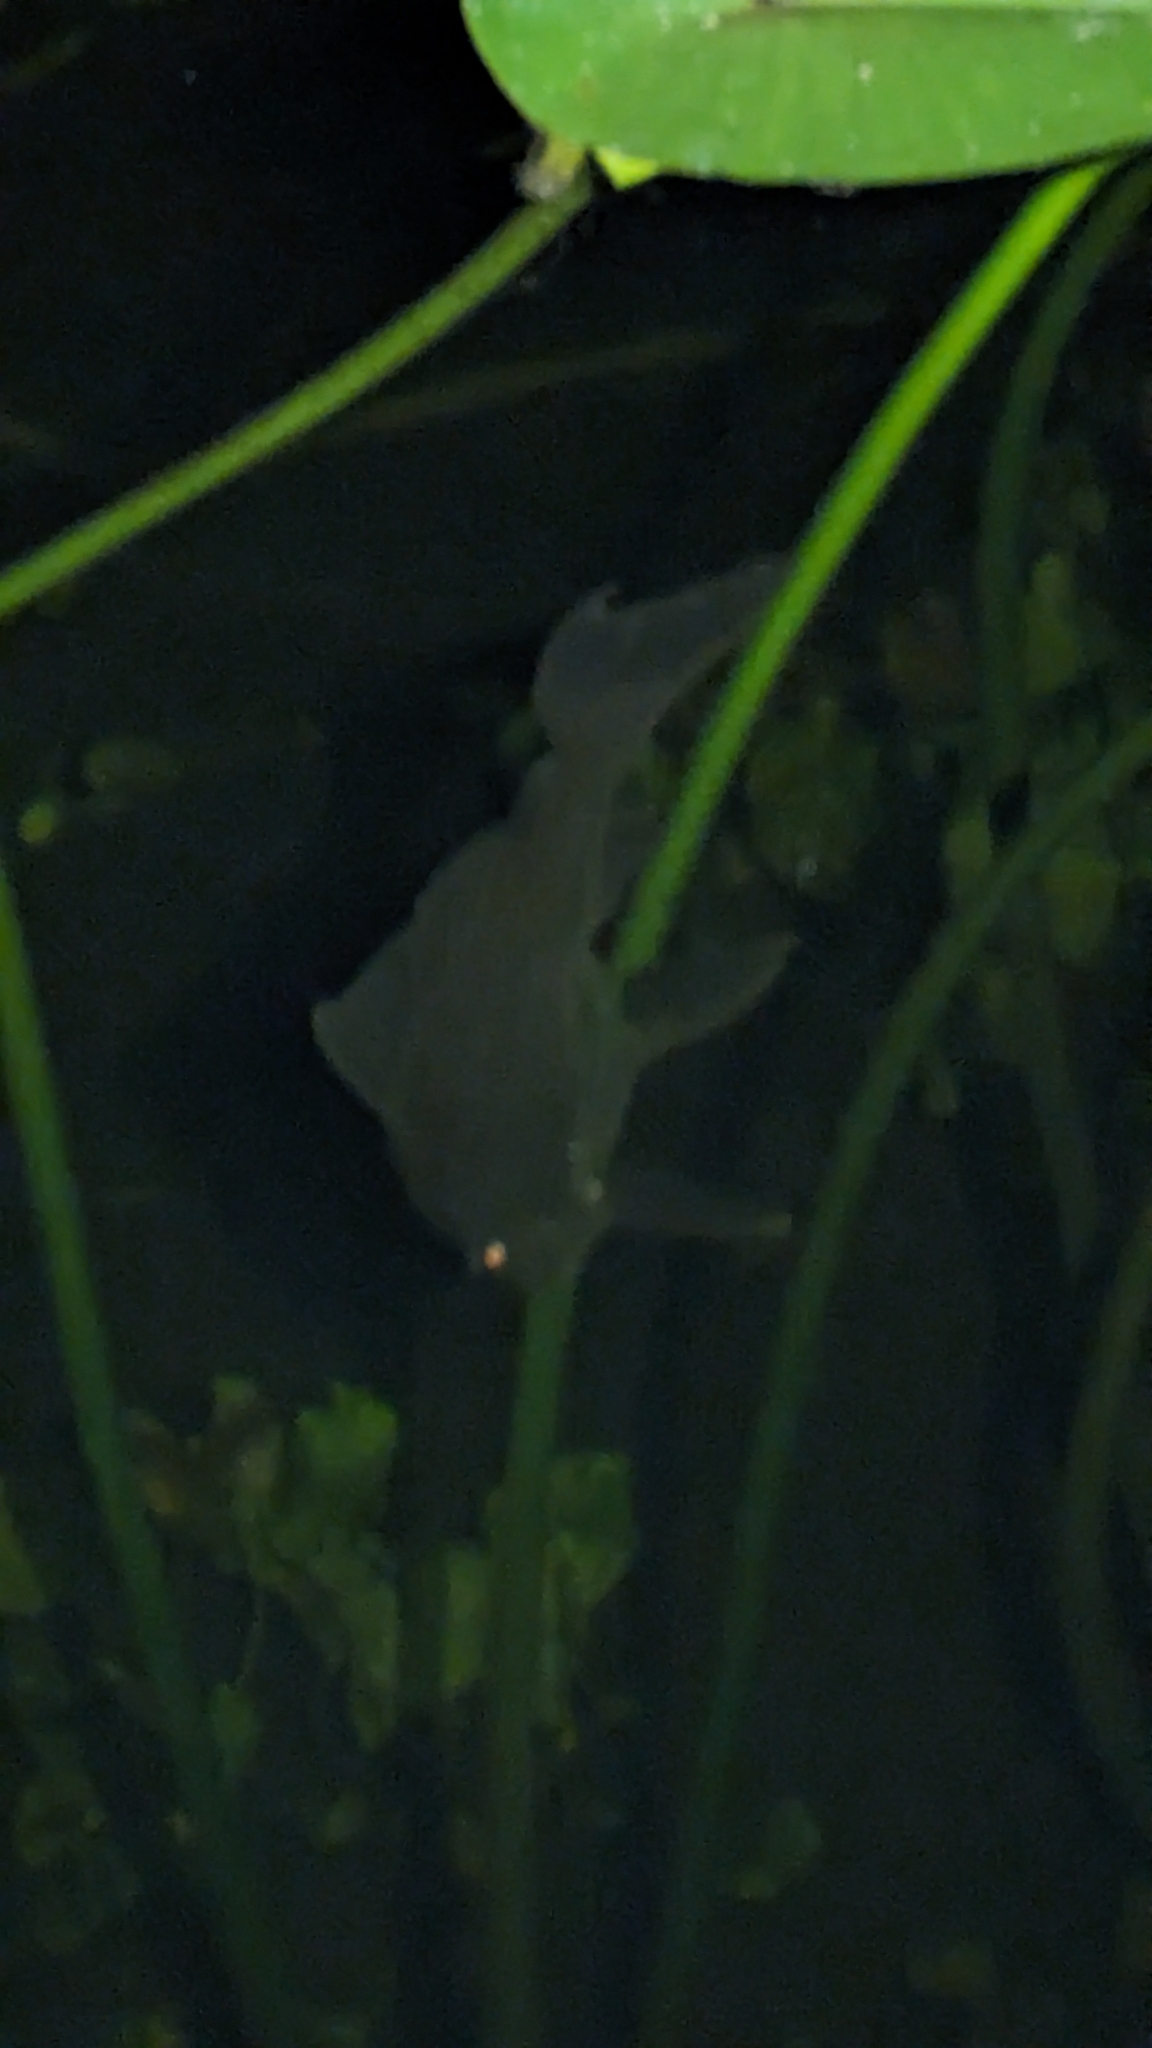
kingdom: Animalia
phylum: Chordata
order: Siluriformes
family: Loricariidae
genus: Pterygoplichthys
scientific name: Pterygoplichthys
